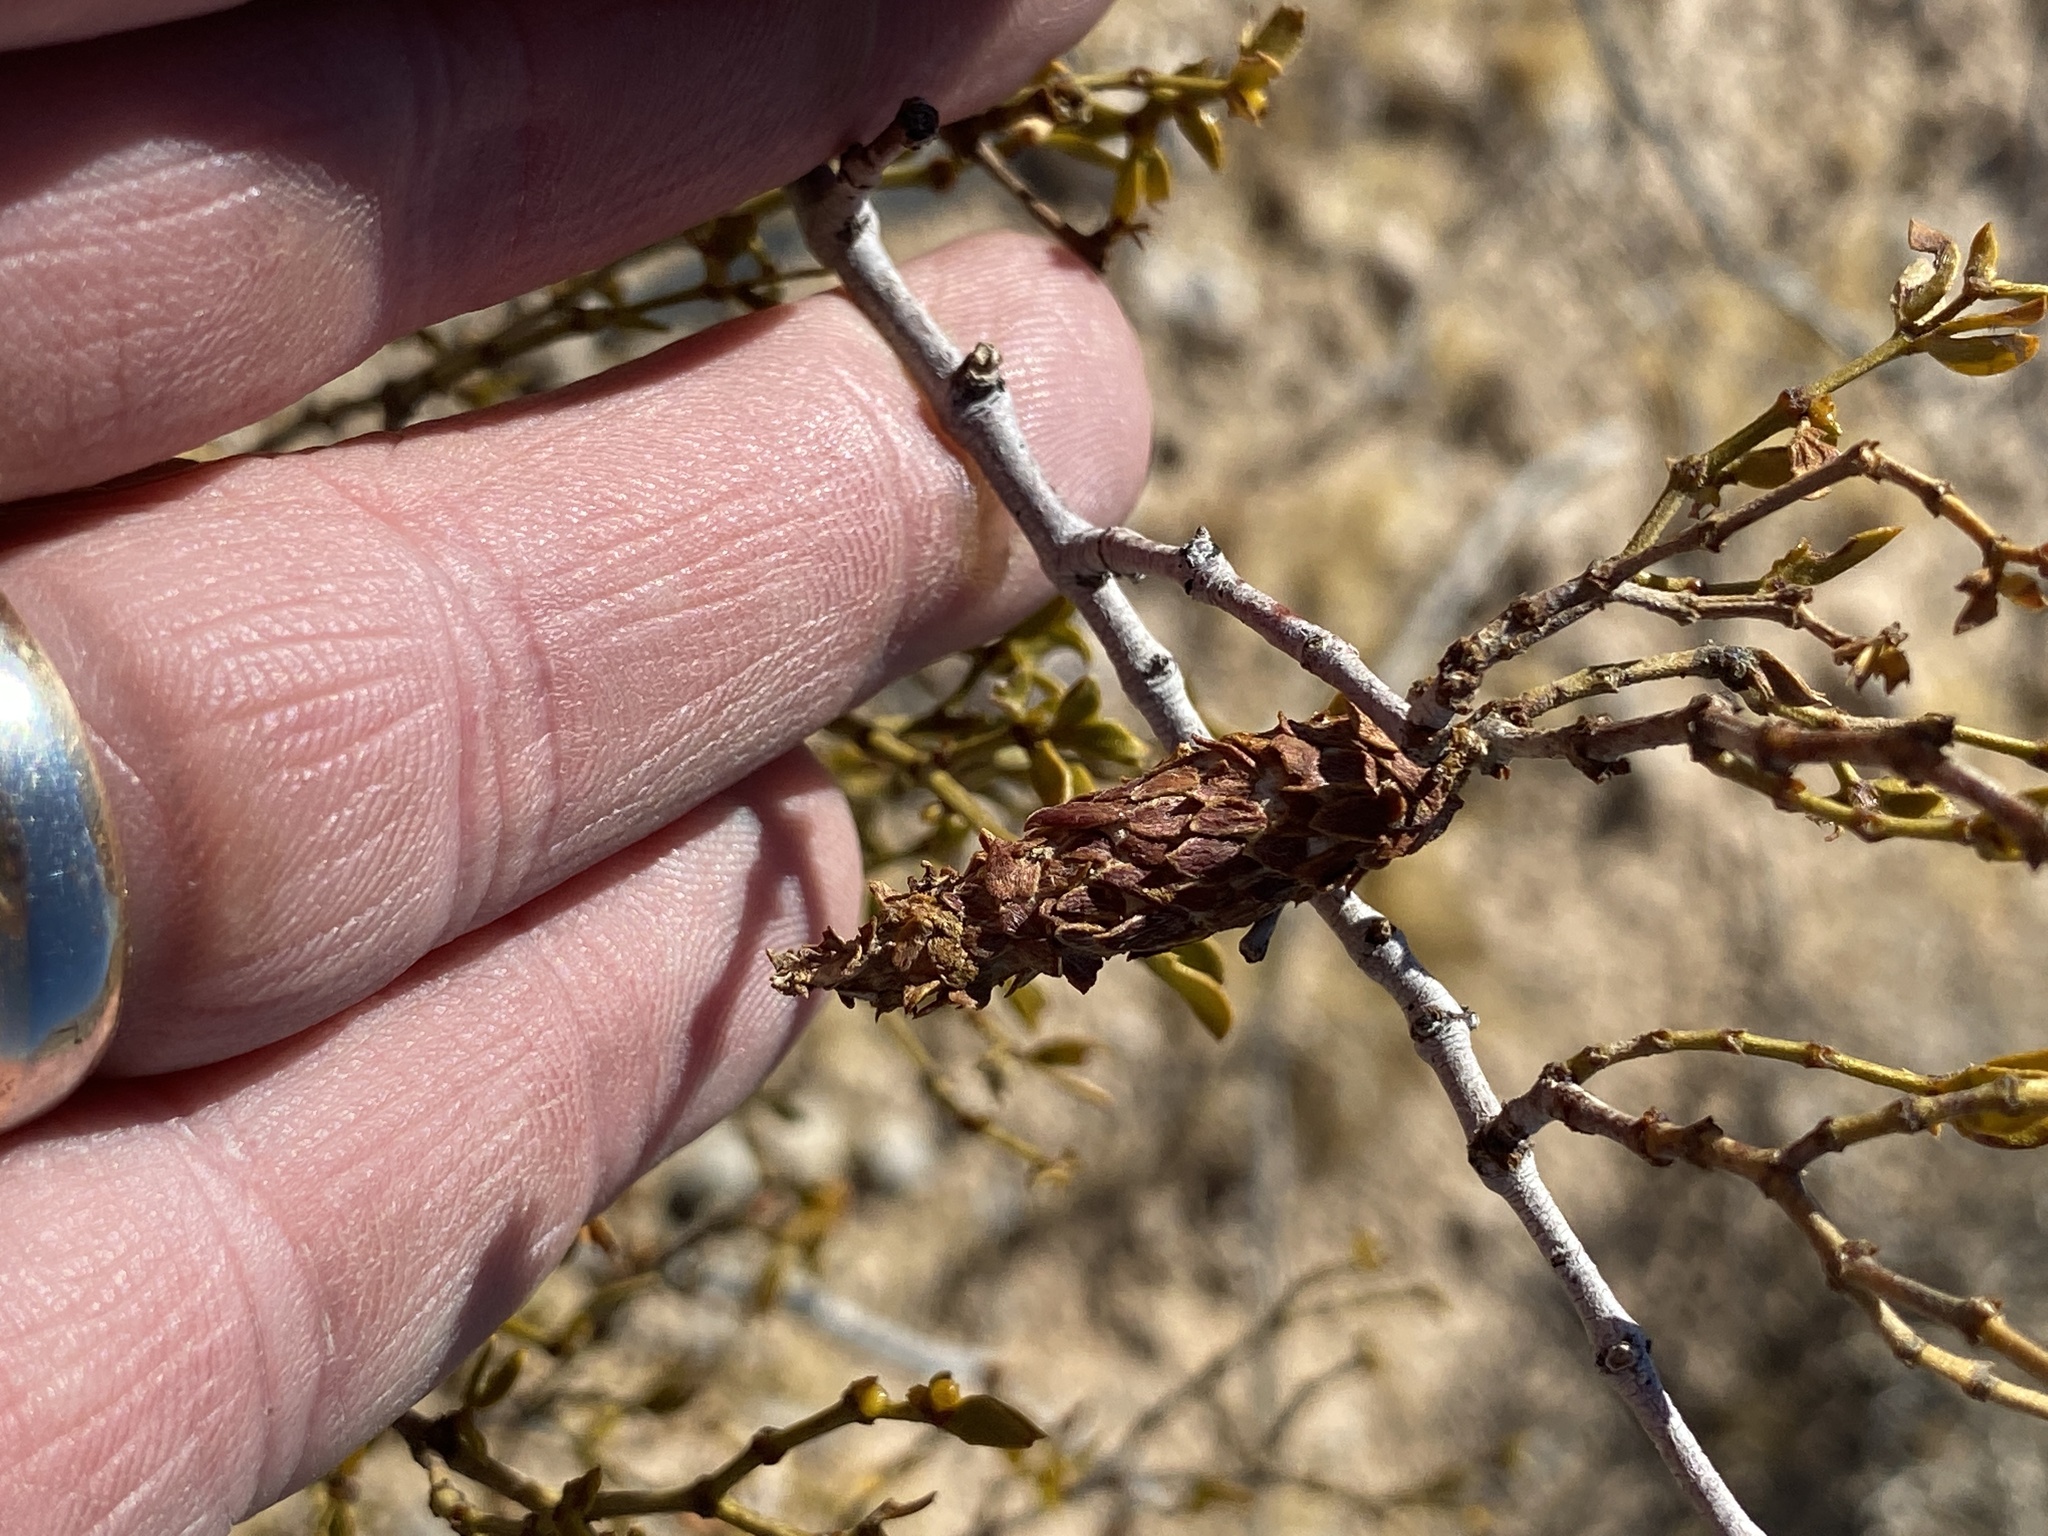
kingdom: Animalia
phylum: Arthropoda
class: Insecta
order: Lepidoptera
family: Psychidae
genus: Thyridopteryx
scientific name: Thyridopteryx meadii
